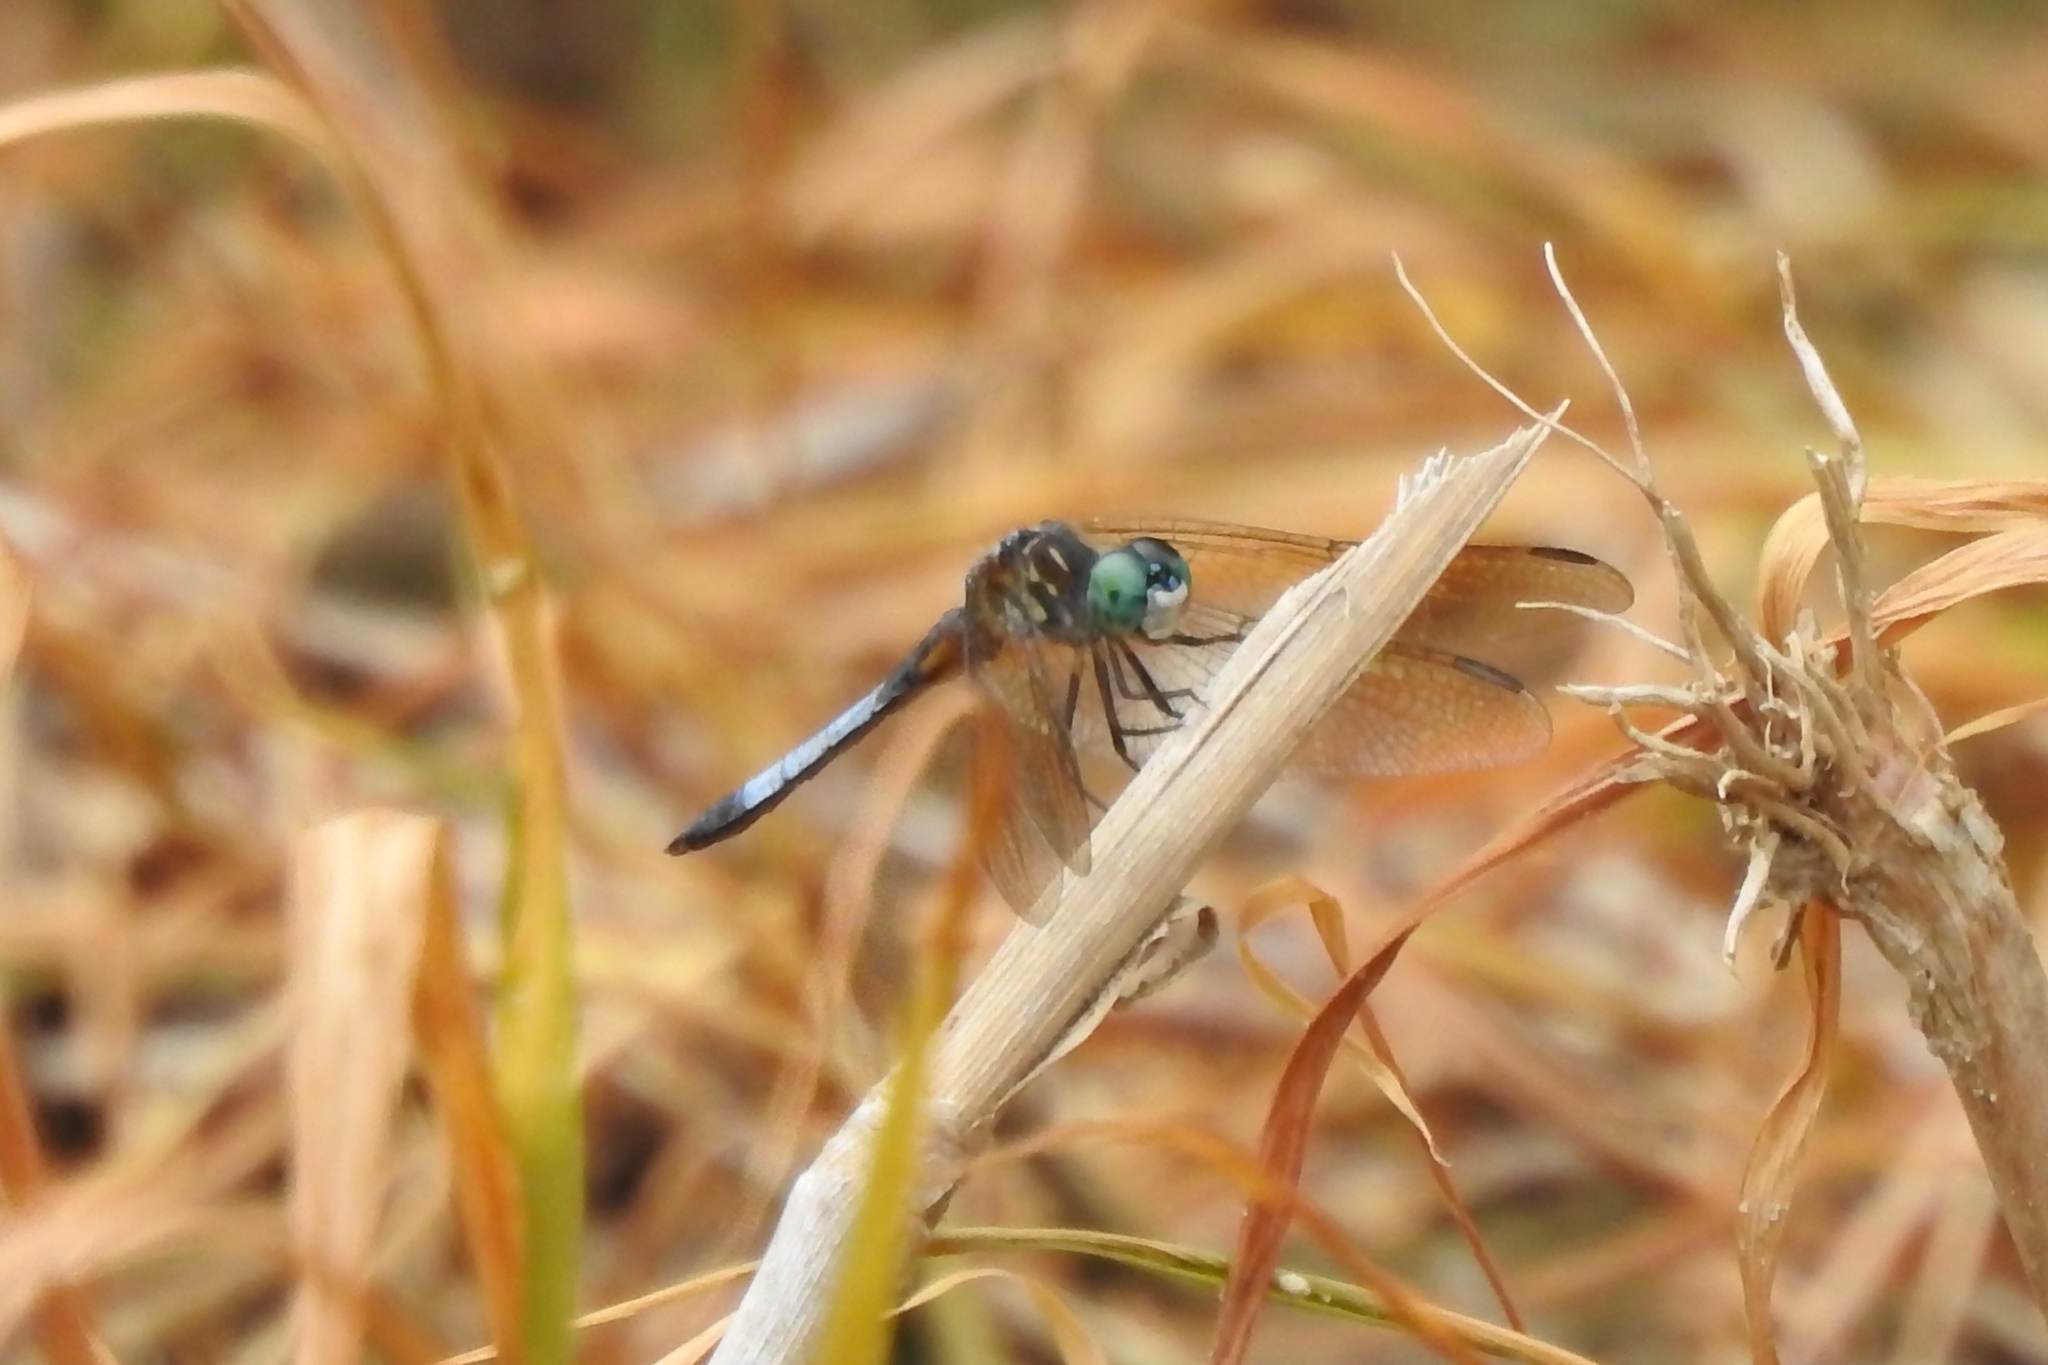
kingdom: Animalia
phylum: Arthropoda
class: Insecta
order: Odonata
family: Libellulidae
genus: Pachydiplax
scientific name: Pachydiplax longipennis
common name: Blue dasher
